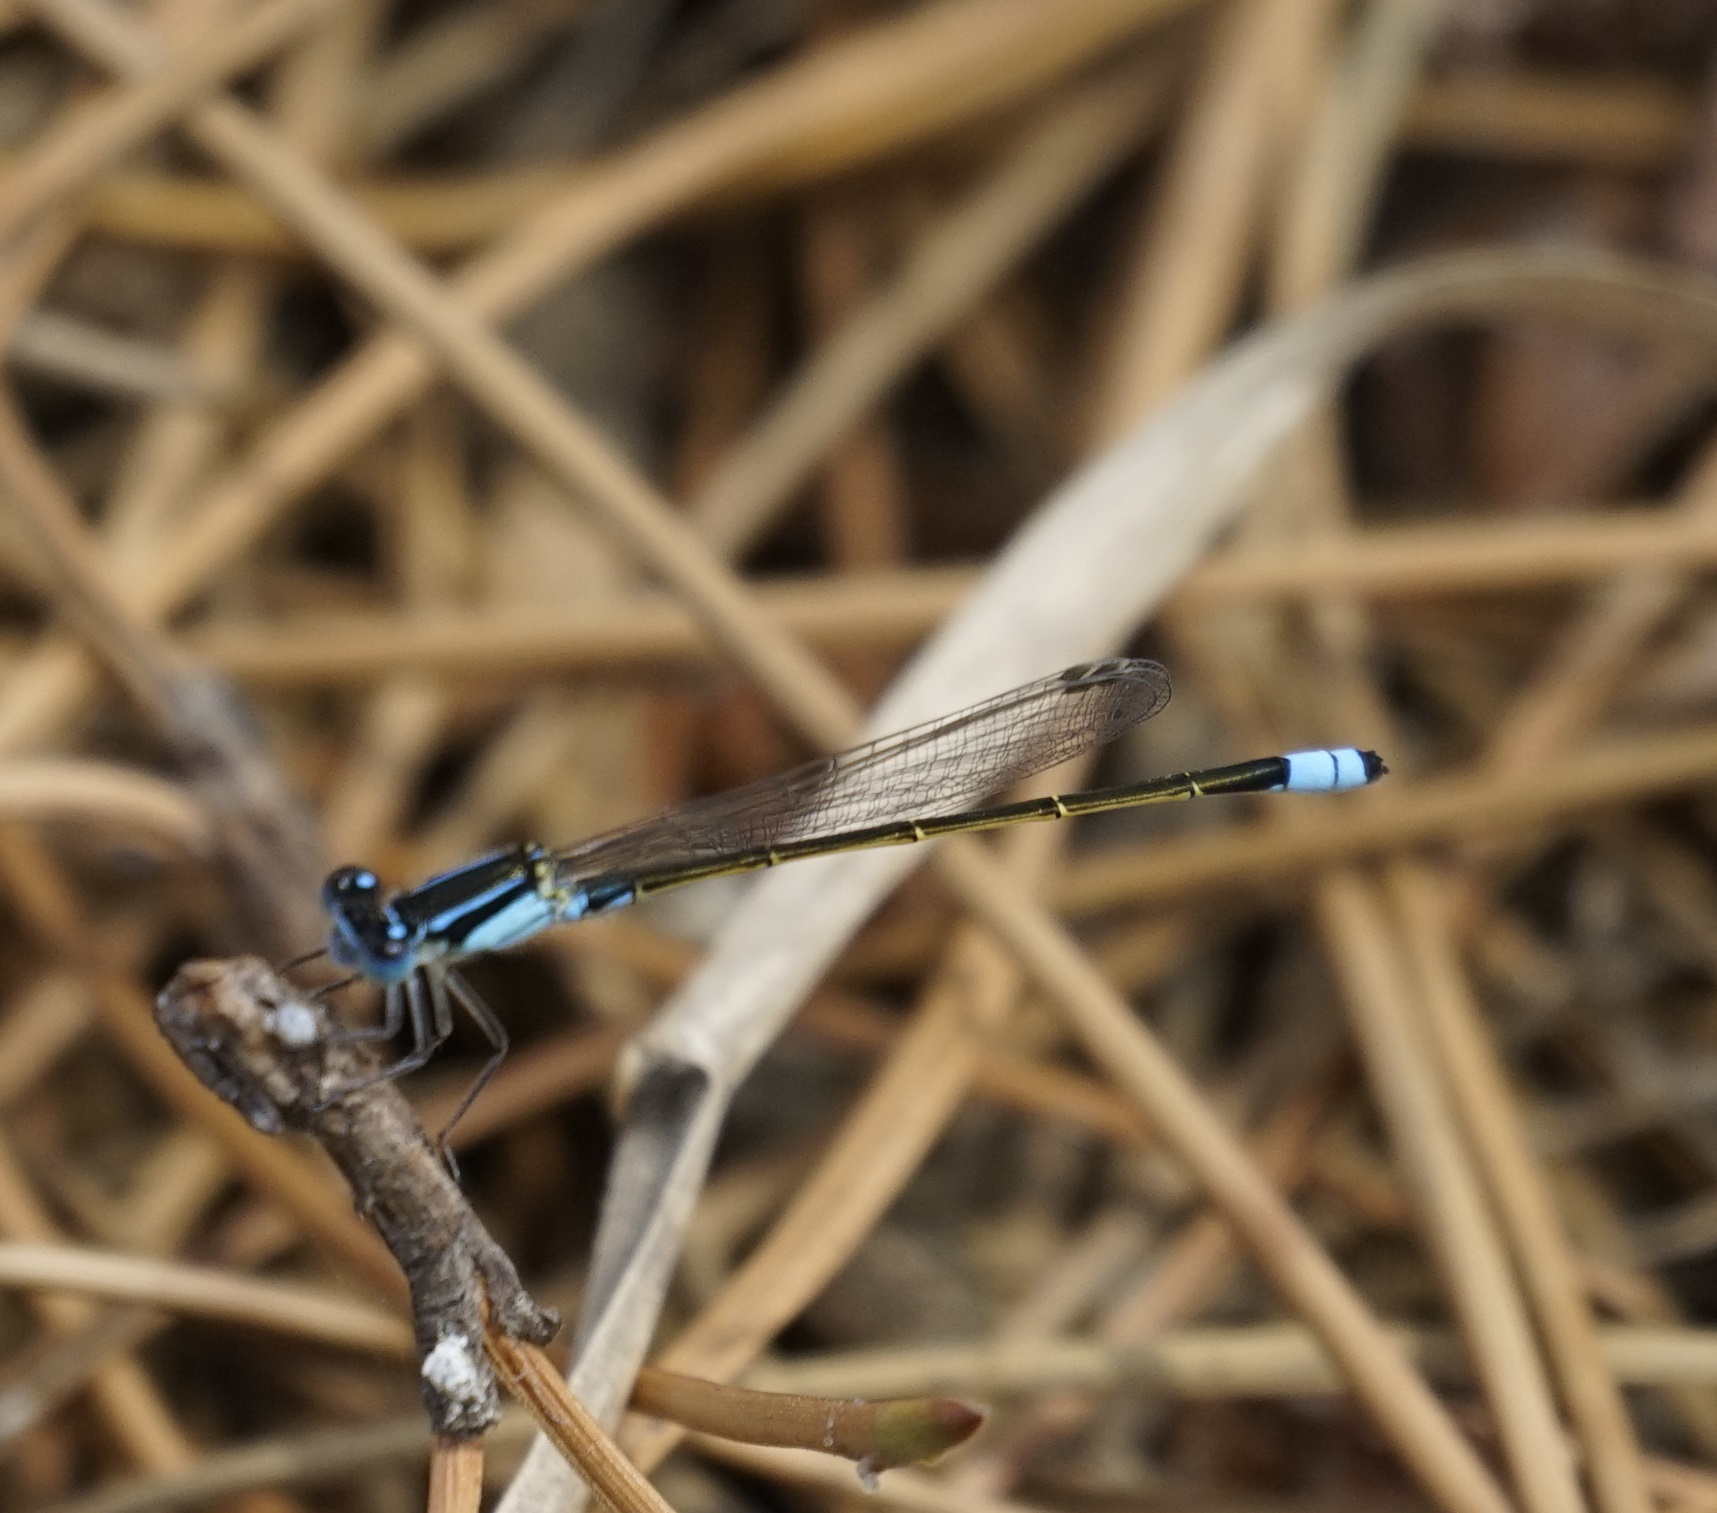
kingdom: Animalia
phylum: Arthropoda
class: Insecta
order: Odonata
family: Coenagrionidae
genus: Ischnura
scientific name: Ischnura heterosticta
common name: Common bluetail
